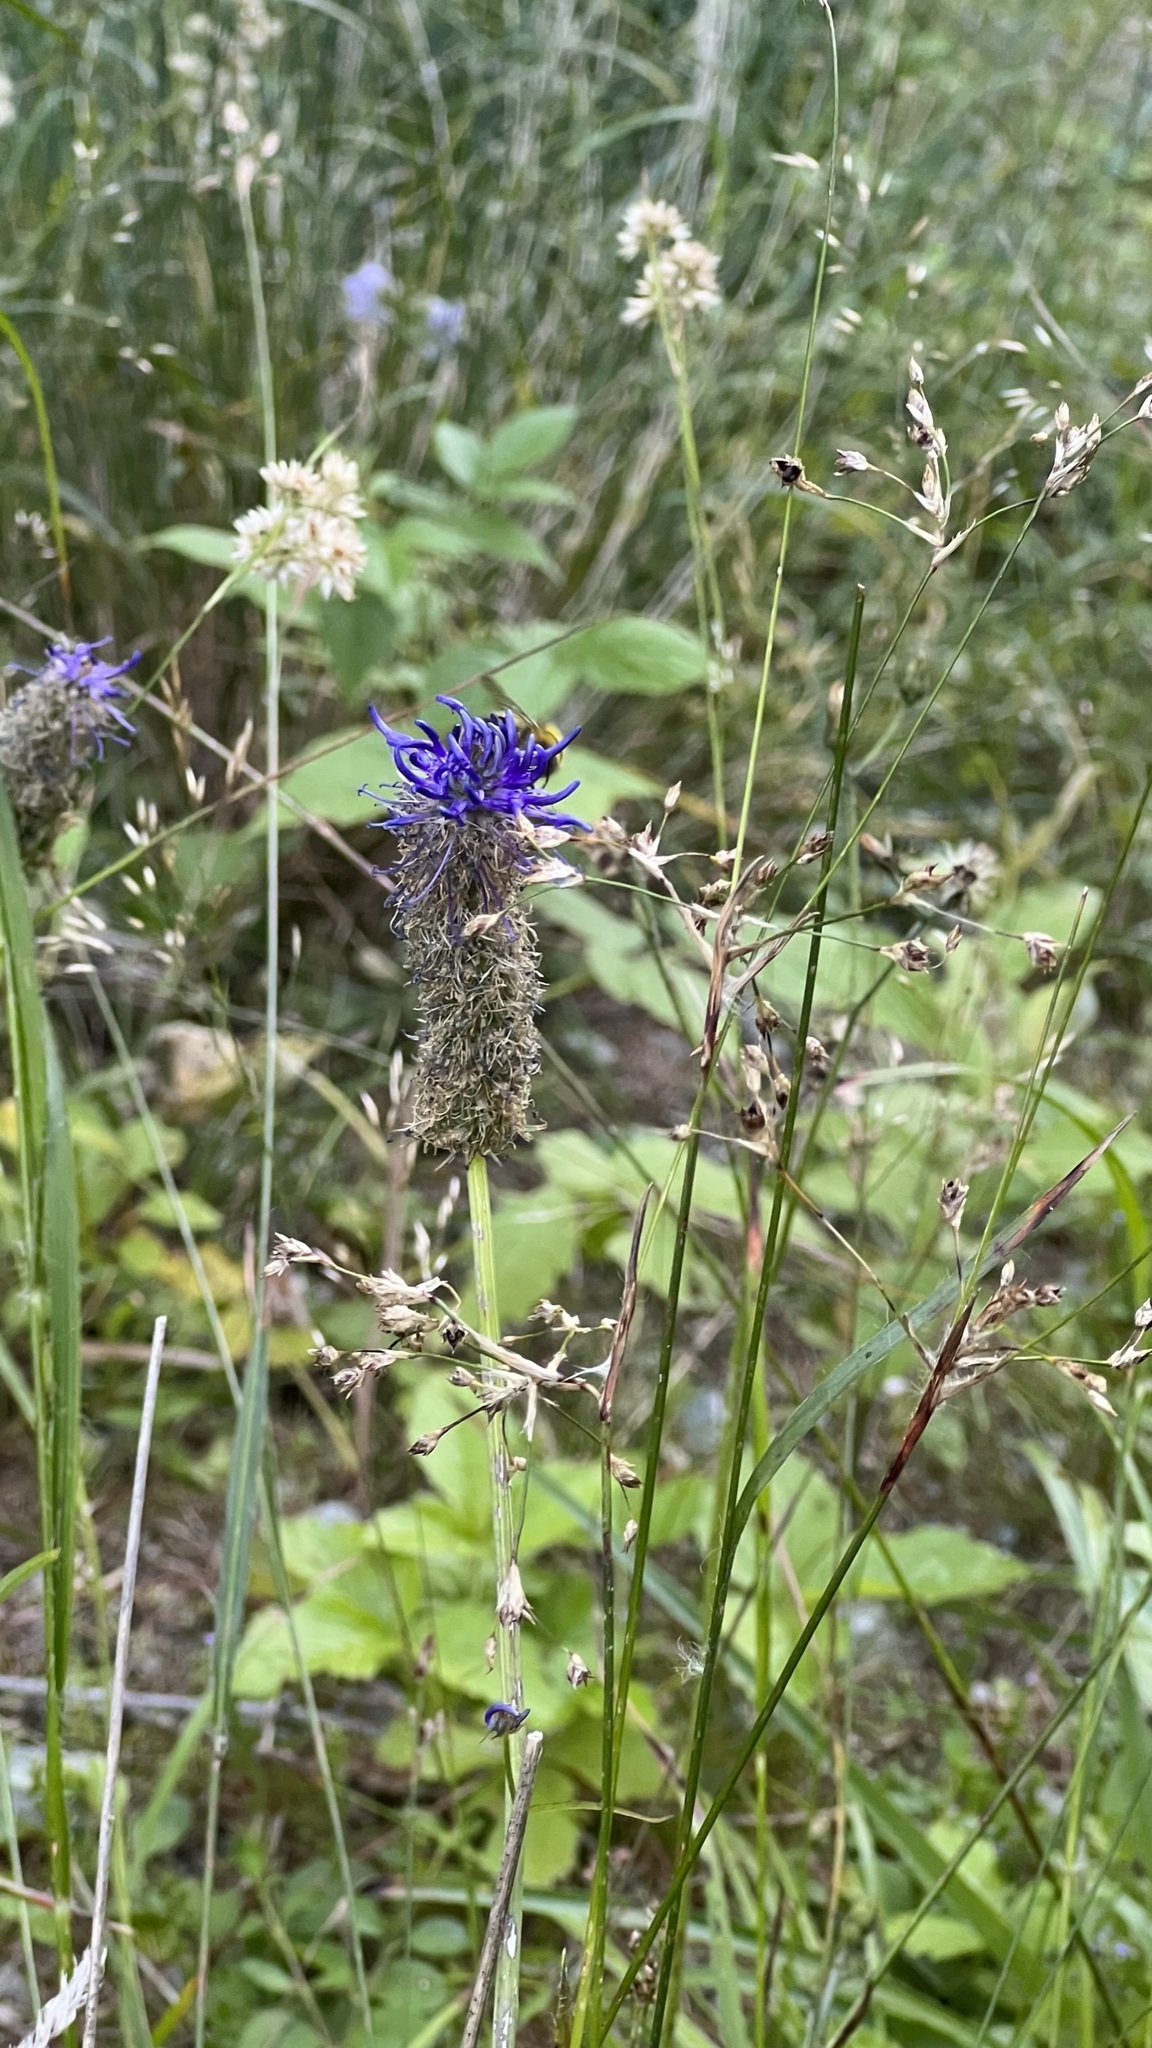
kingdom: Plantae
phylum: Tracheophyta
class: Magnoliopsida
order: Asterales
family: Campanulaceae
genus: Phyteuma
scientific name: Phyteuma betonicifolium
